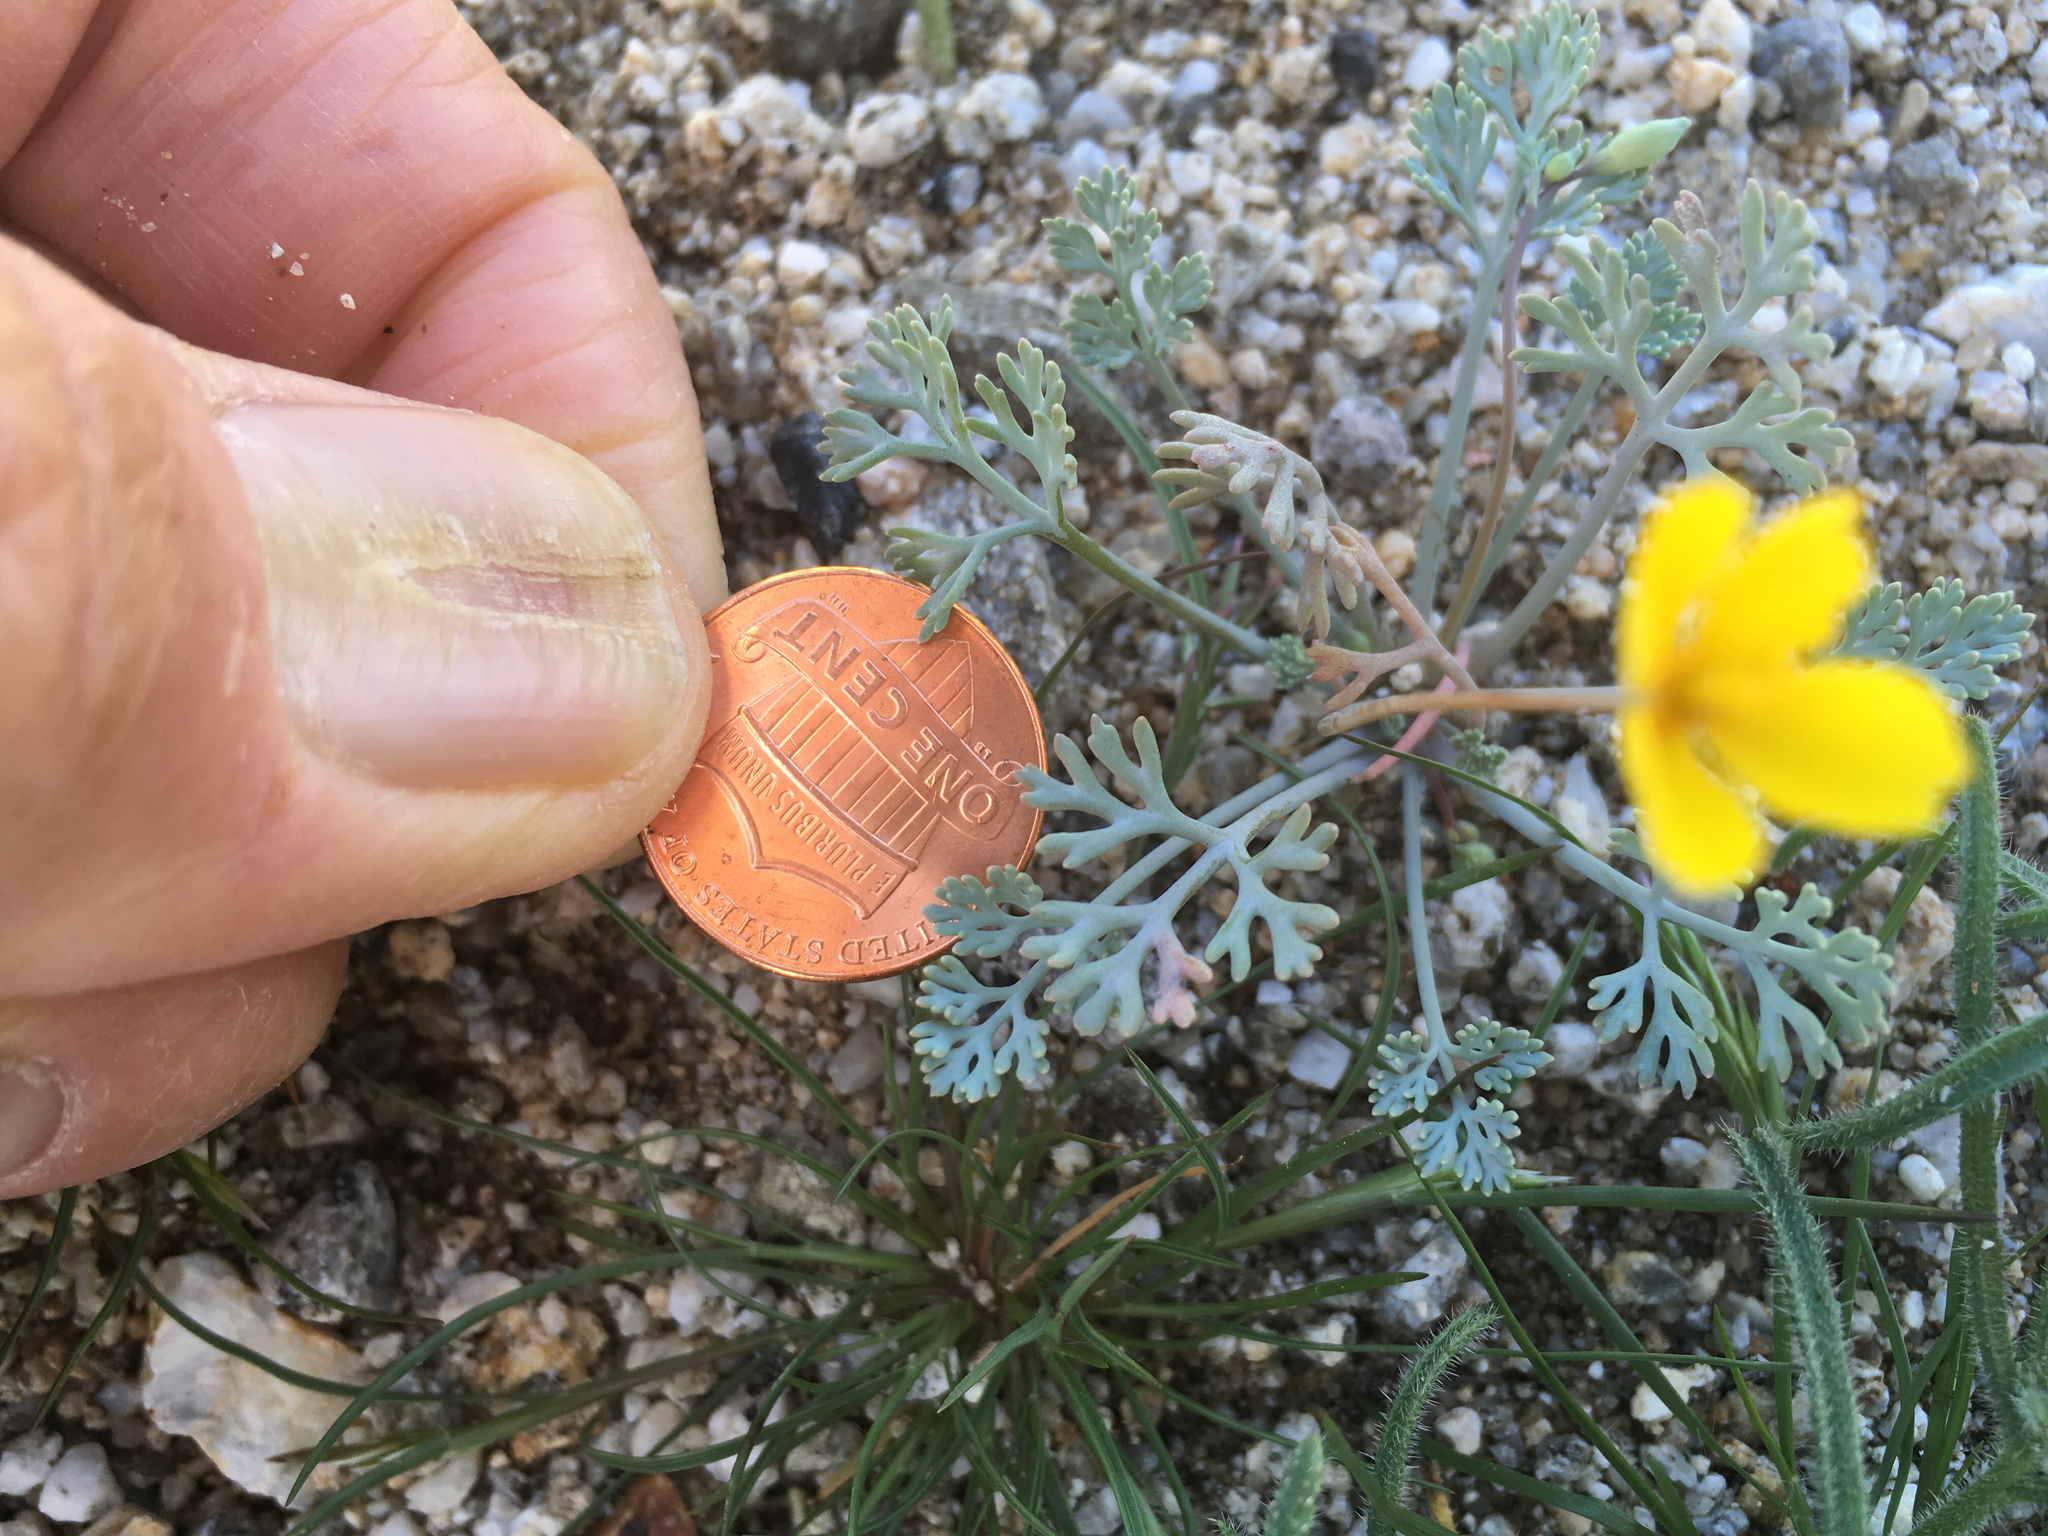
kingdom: Plantae
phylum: Tracheophyta
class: Magnoliopsida
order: Ranunculales
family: Papaveraceae
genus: Eschscholzia
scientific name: Eschscholzia minutiflora
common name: Small-flower california-poppy
